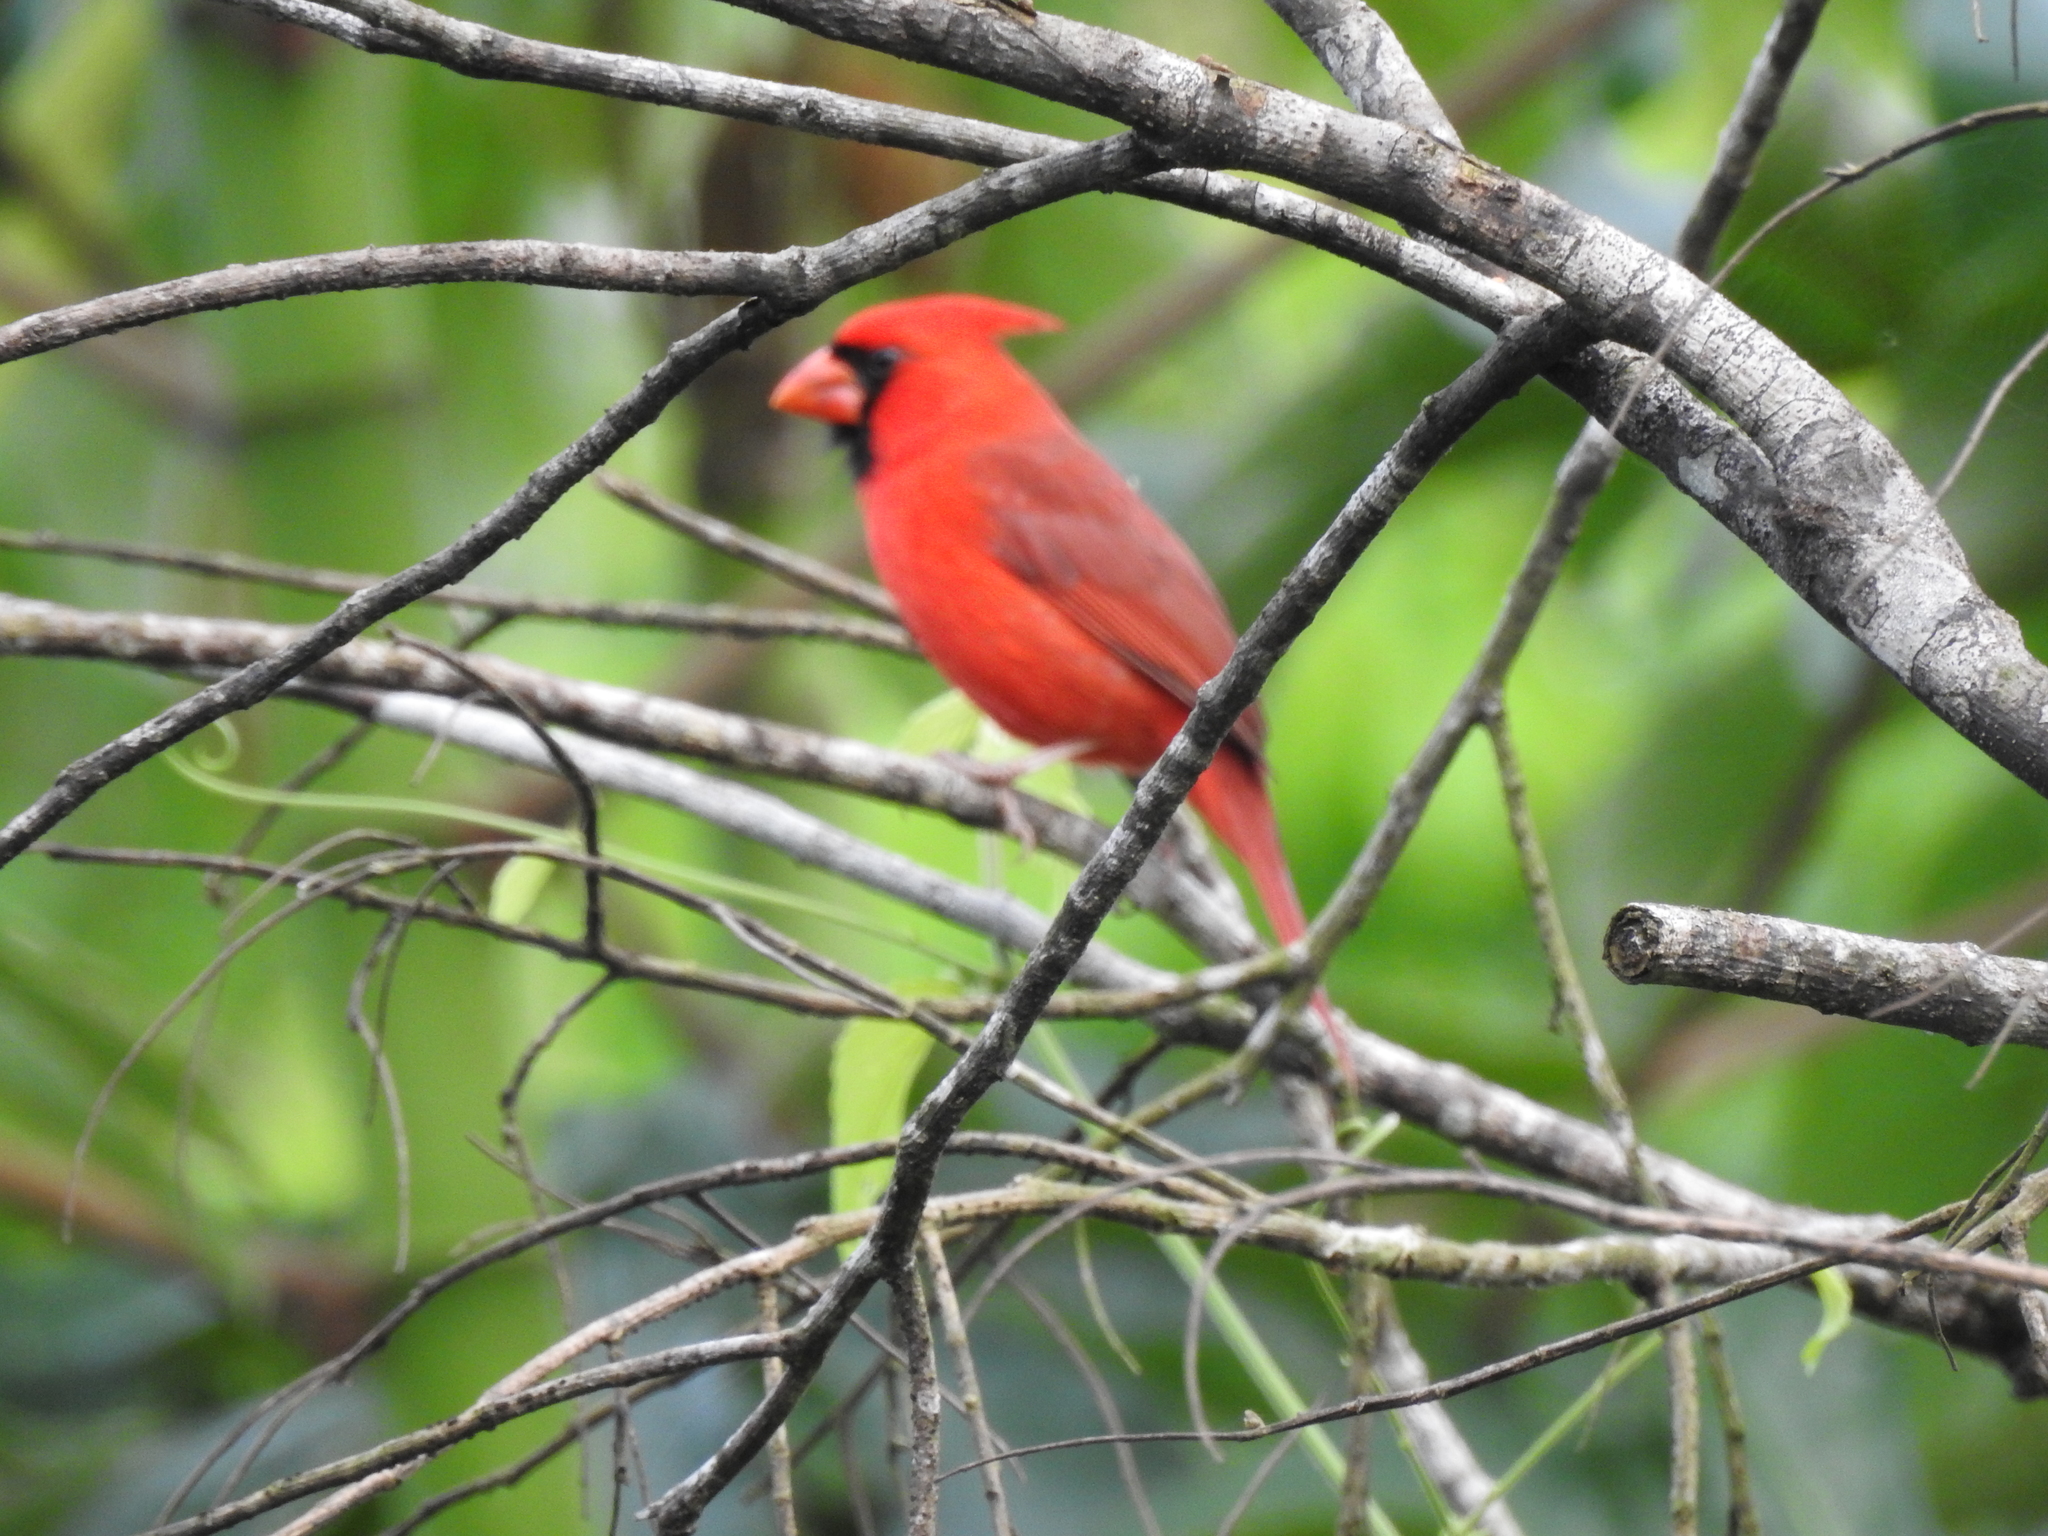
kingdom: Animalia
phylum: Chordata
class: Aves
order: Passeriformes
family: Cardinalidae
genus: Cardinalis
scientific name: Cardinalis cardinalis
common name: Northern cardinal
